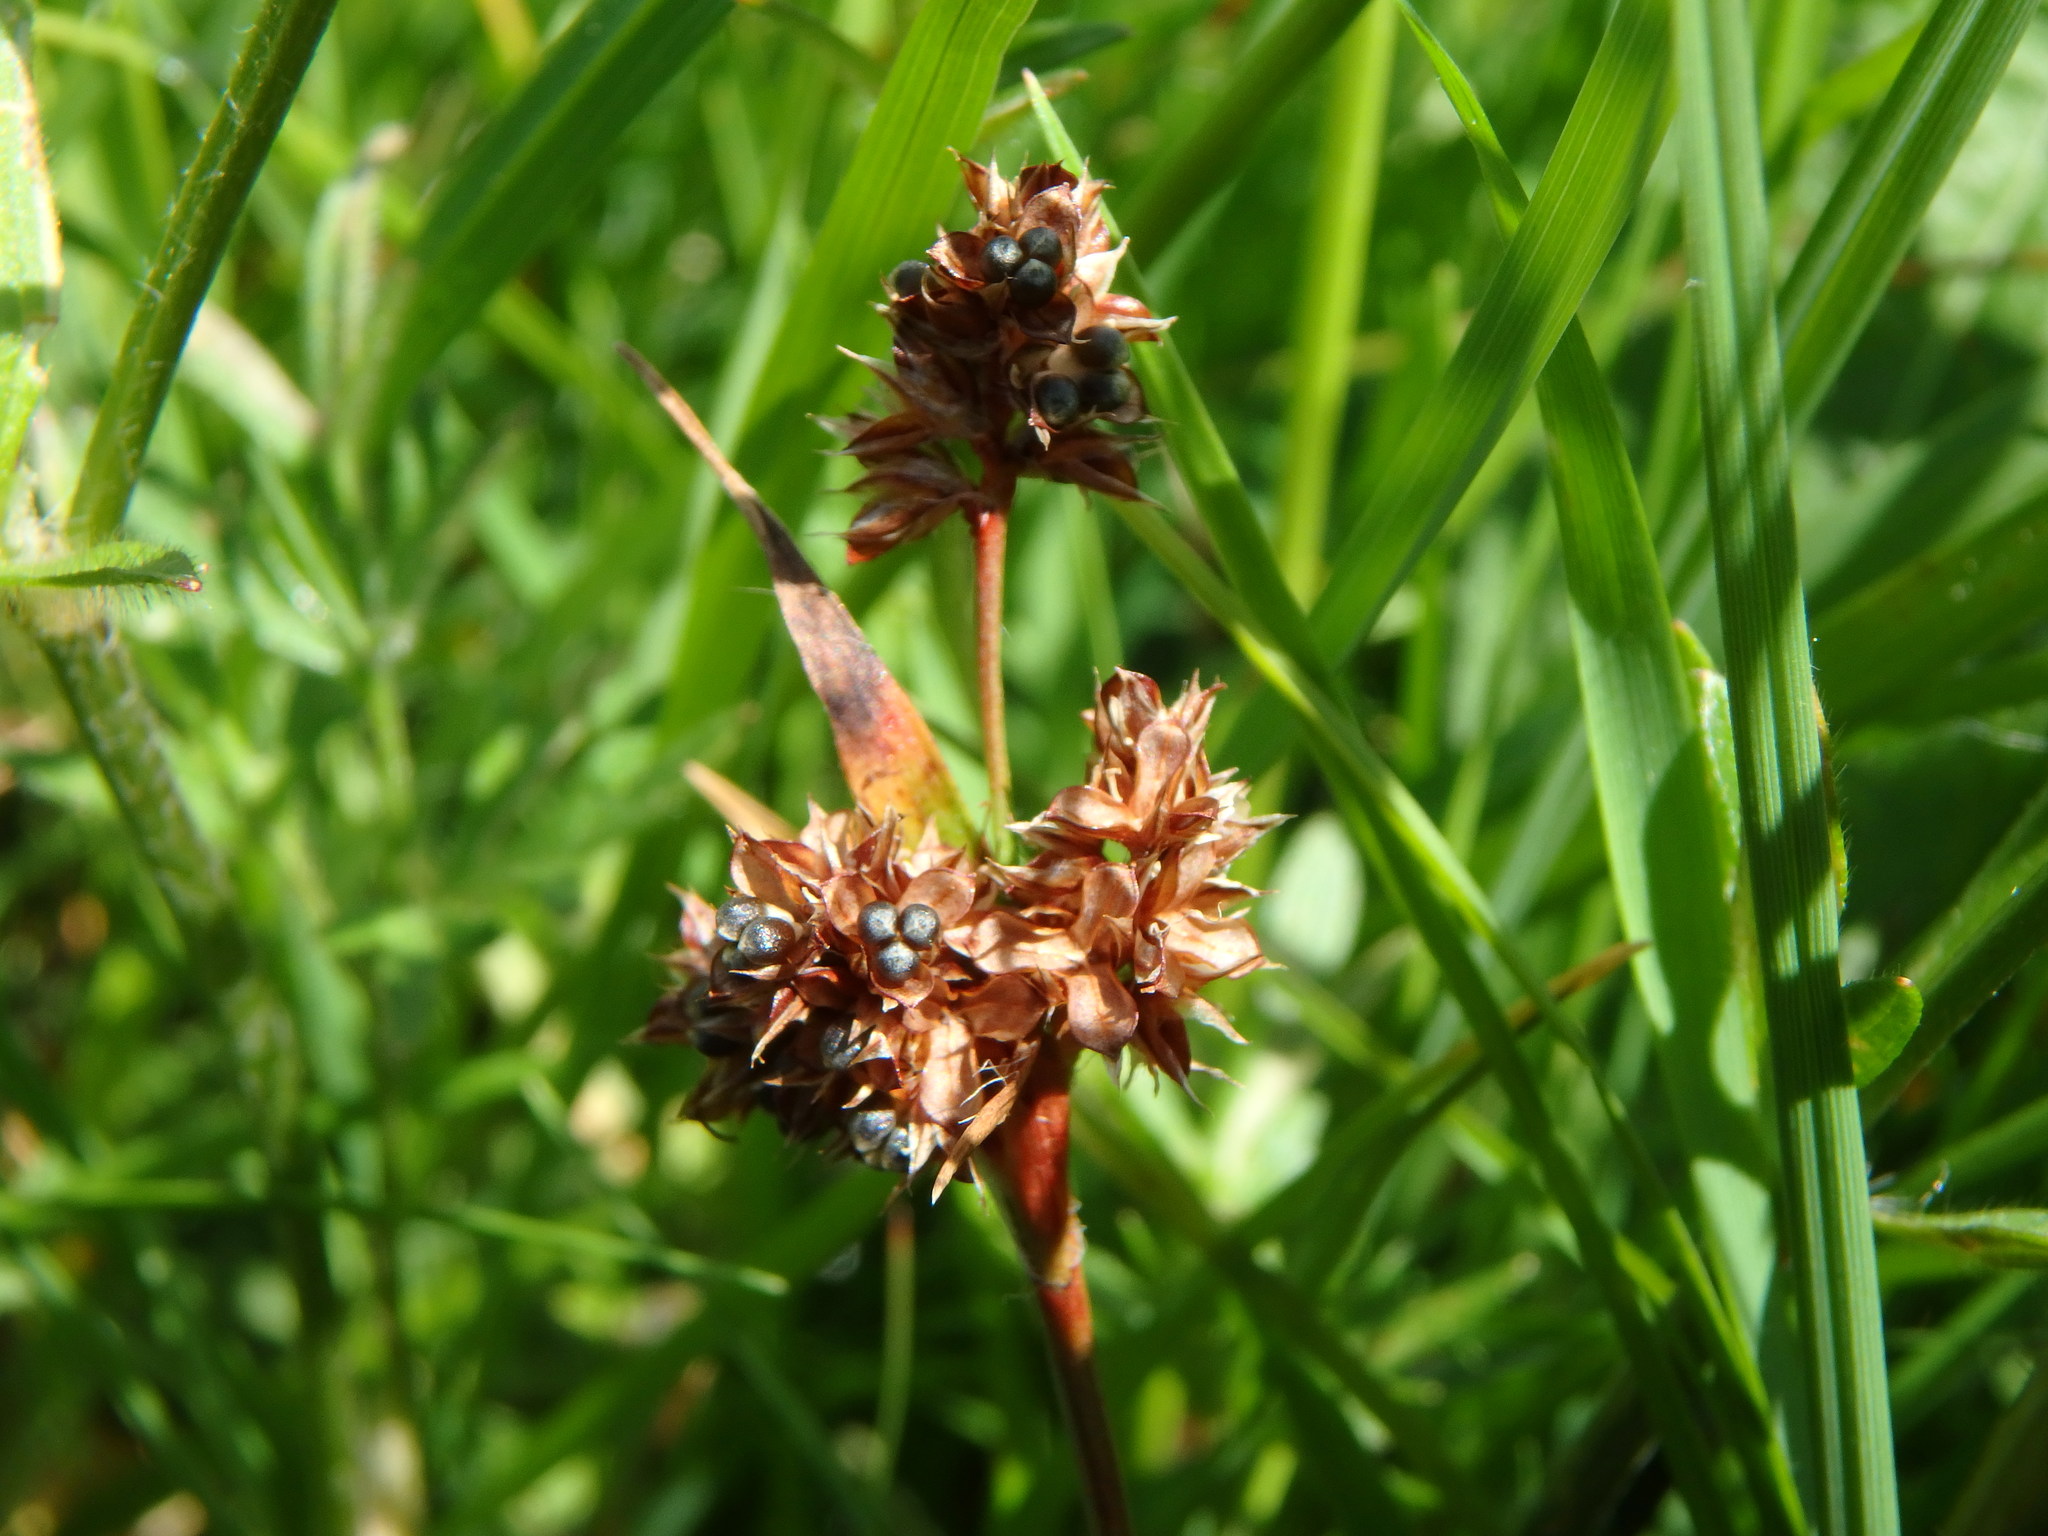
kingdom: Plantae
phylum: Tracheophyta
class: Liliopsida
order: Poales
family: Juncaceae
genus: Luzula
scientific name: Luzula campestris
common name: Field wood-rush
